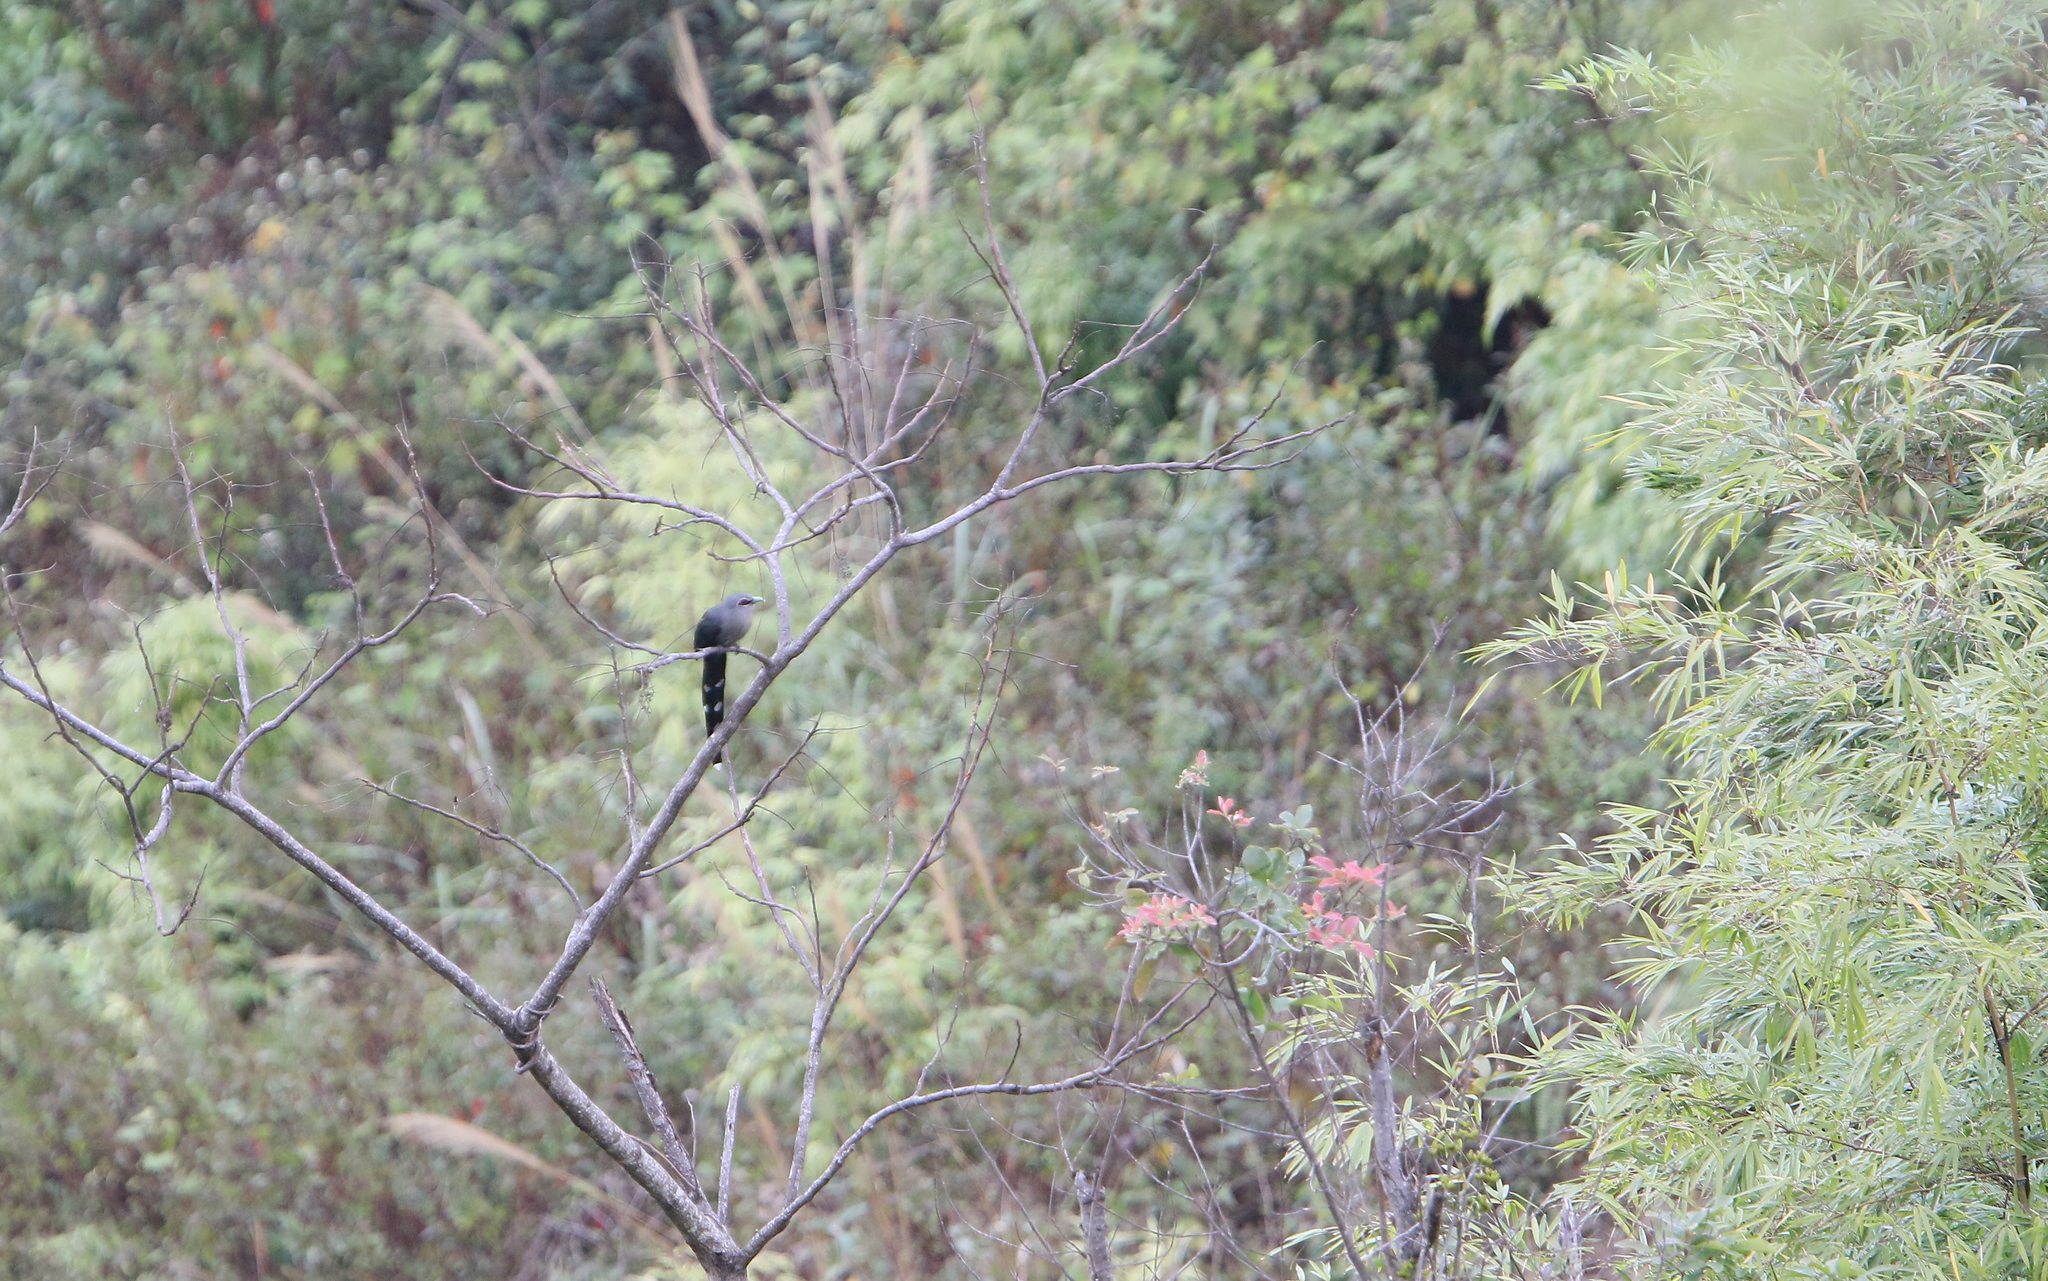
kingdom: Animalia
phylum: Chordata
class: Aves
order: Cuculiformes
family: Cuculidae
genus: Rhopodytes
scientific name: Rhopodytes tristis
